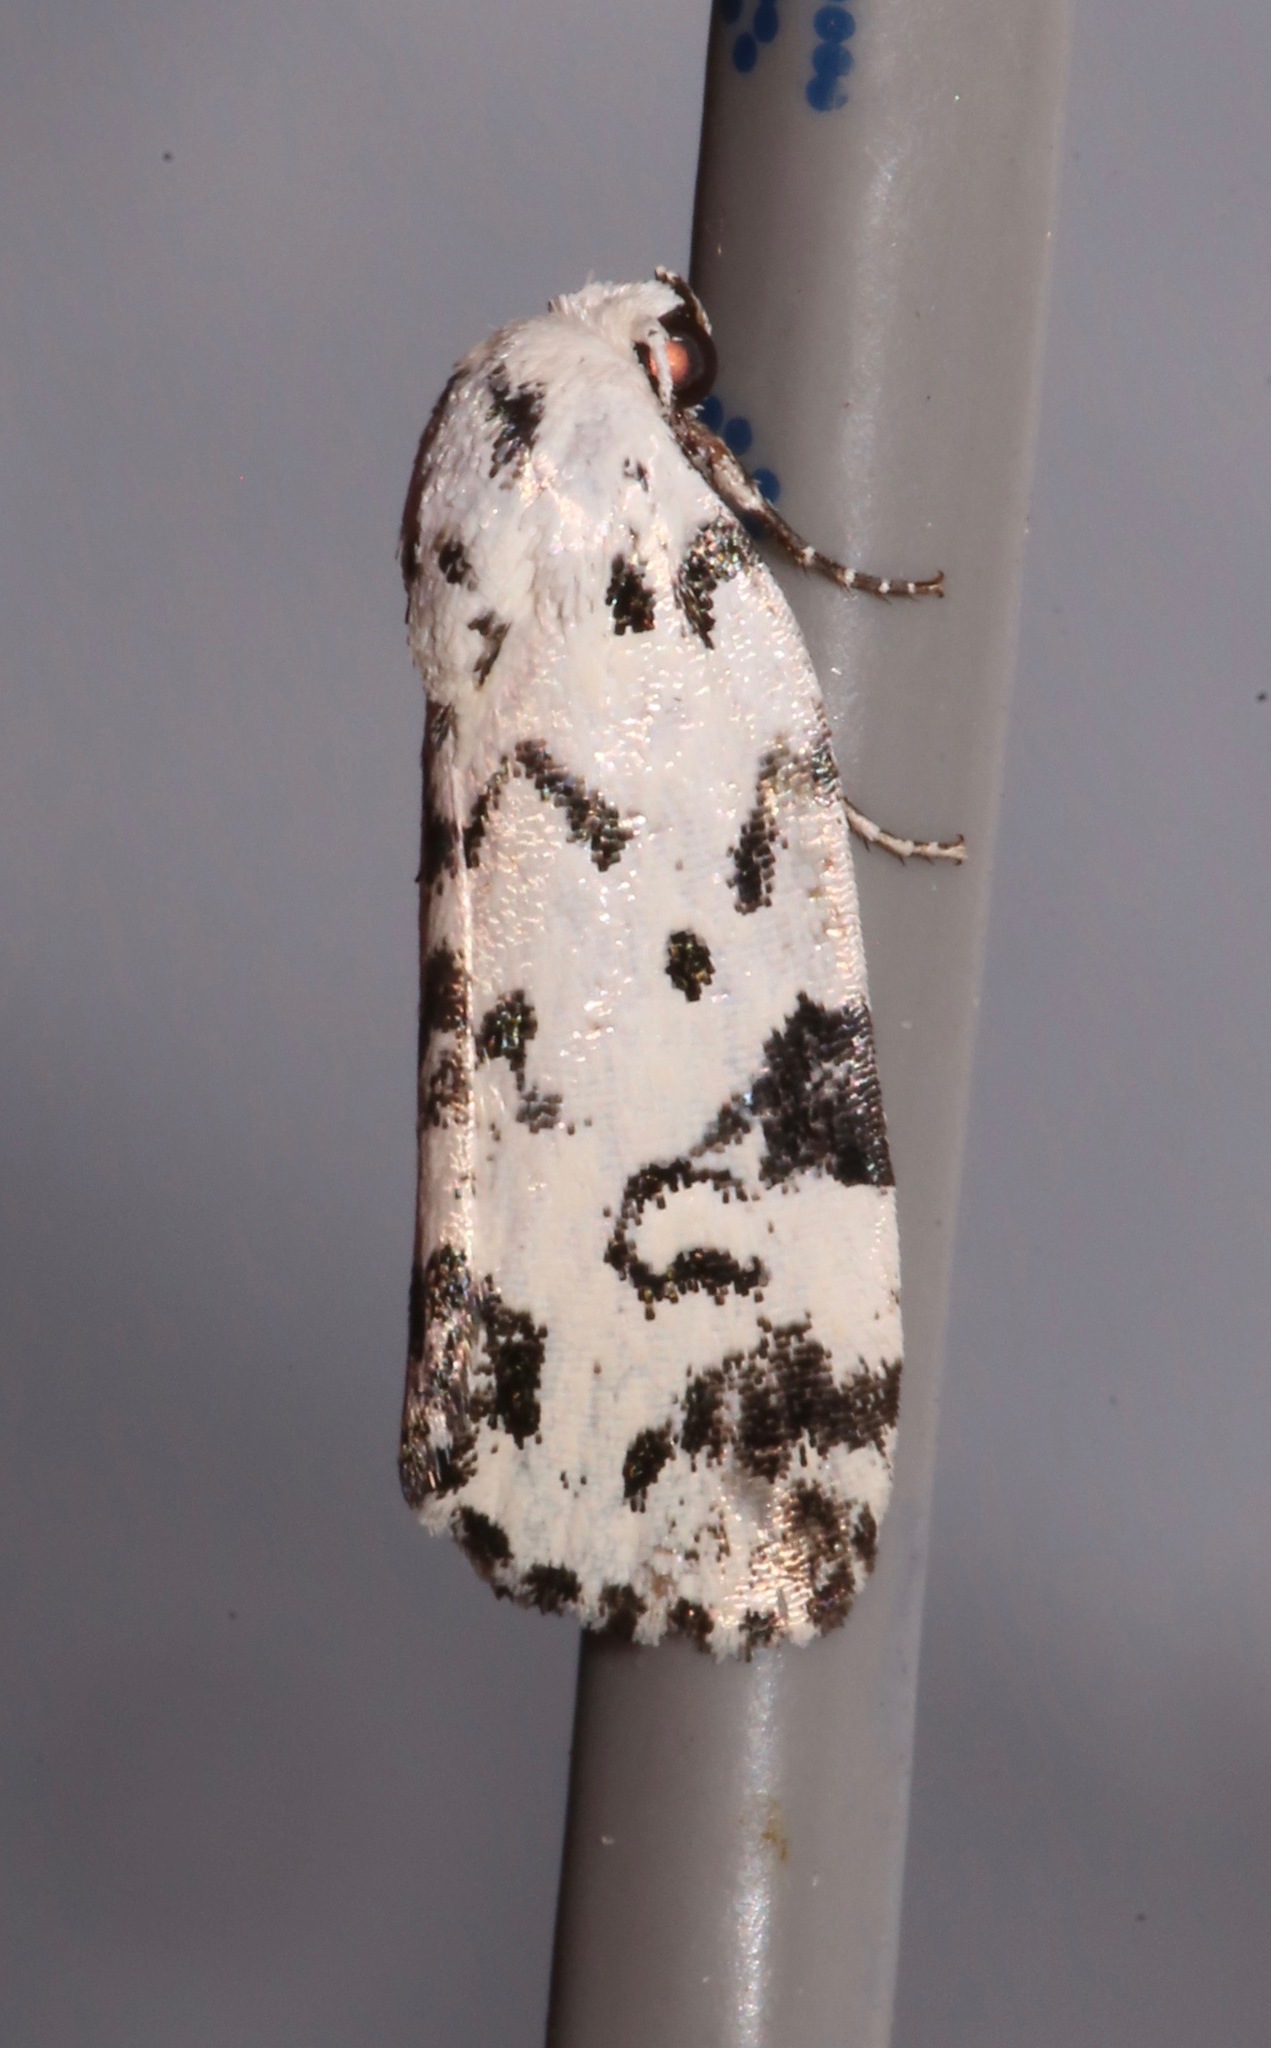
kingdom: Animalia
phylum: Arthropoda
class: Insecta
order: Lepidoptera
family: Noctuidae
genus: Polygrammate
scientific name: Polygrammate hebraeicum
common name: Hebrew moth
